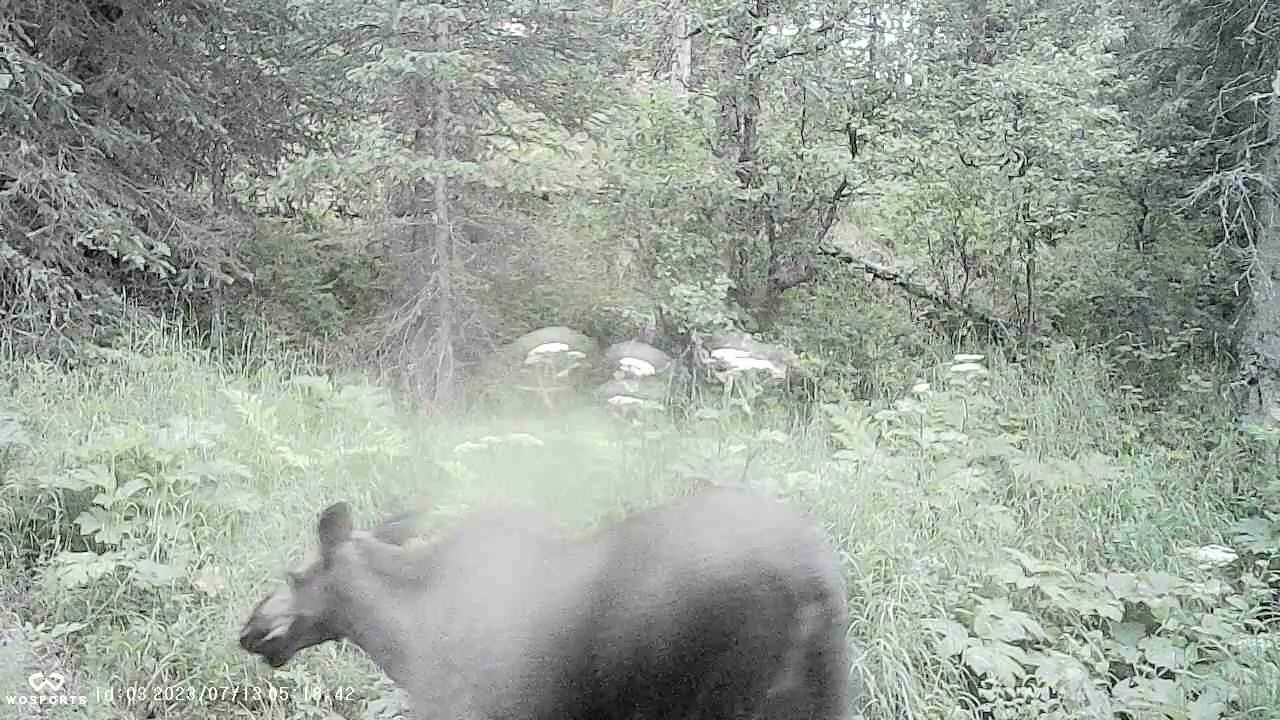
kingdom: Animalia
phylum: Chordata
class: Mammalia
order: Artiodactyla
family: Cervidae
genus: Alces
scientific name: Alces alces
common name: Moose
